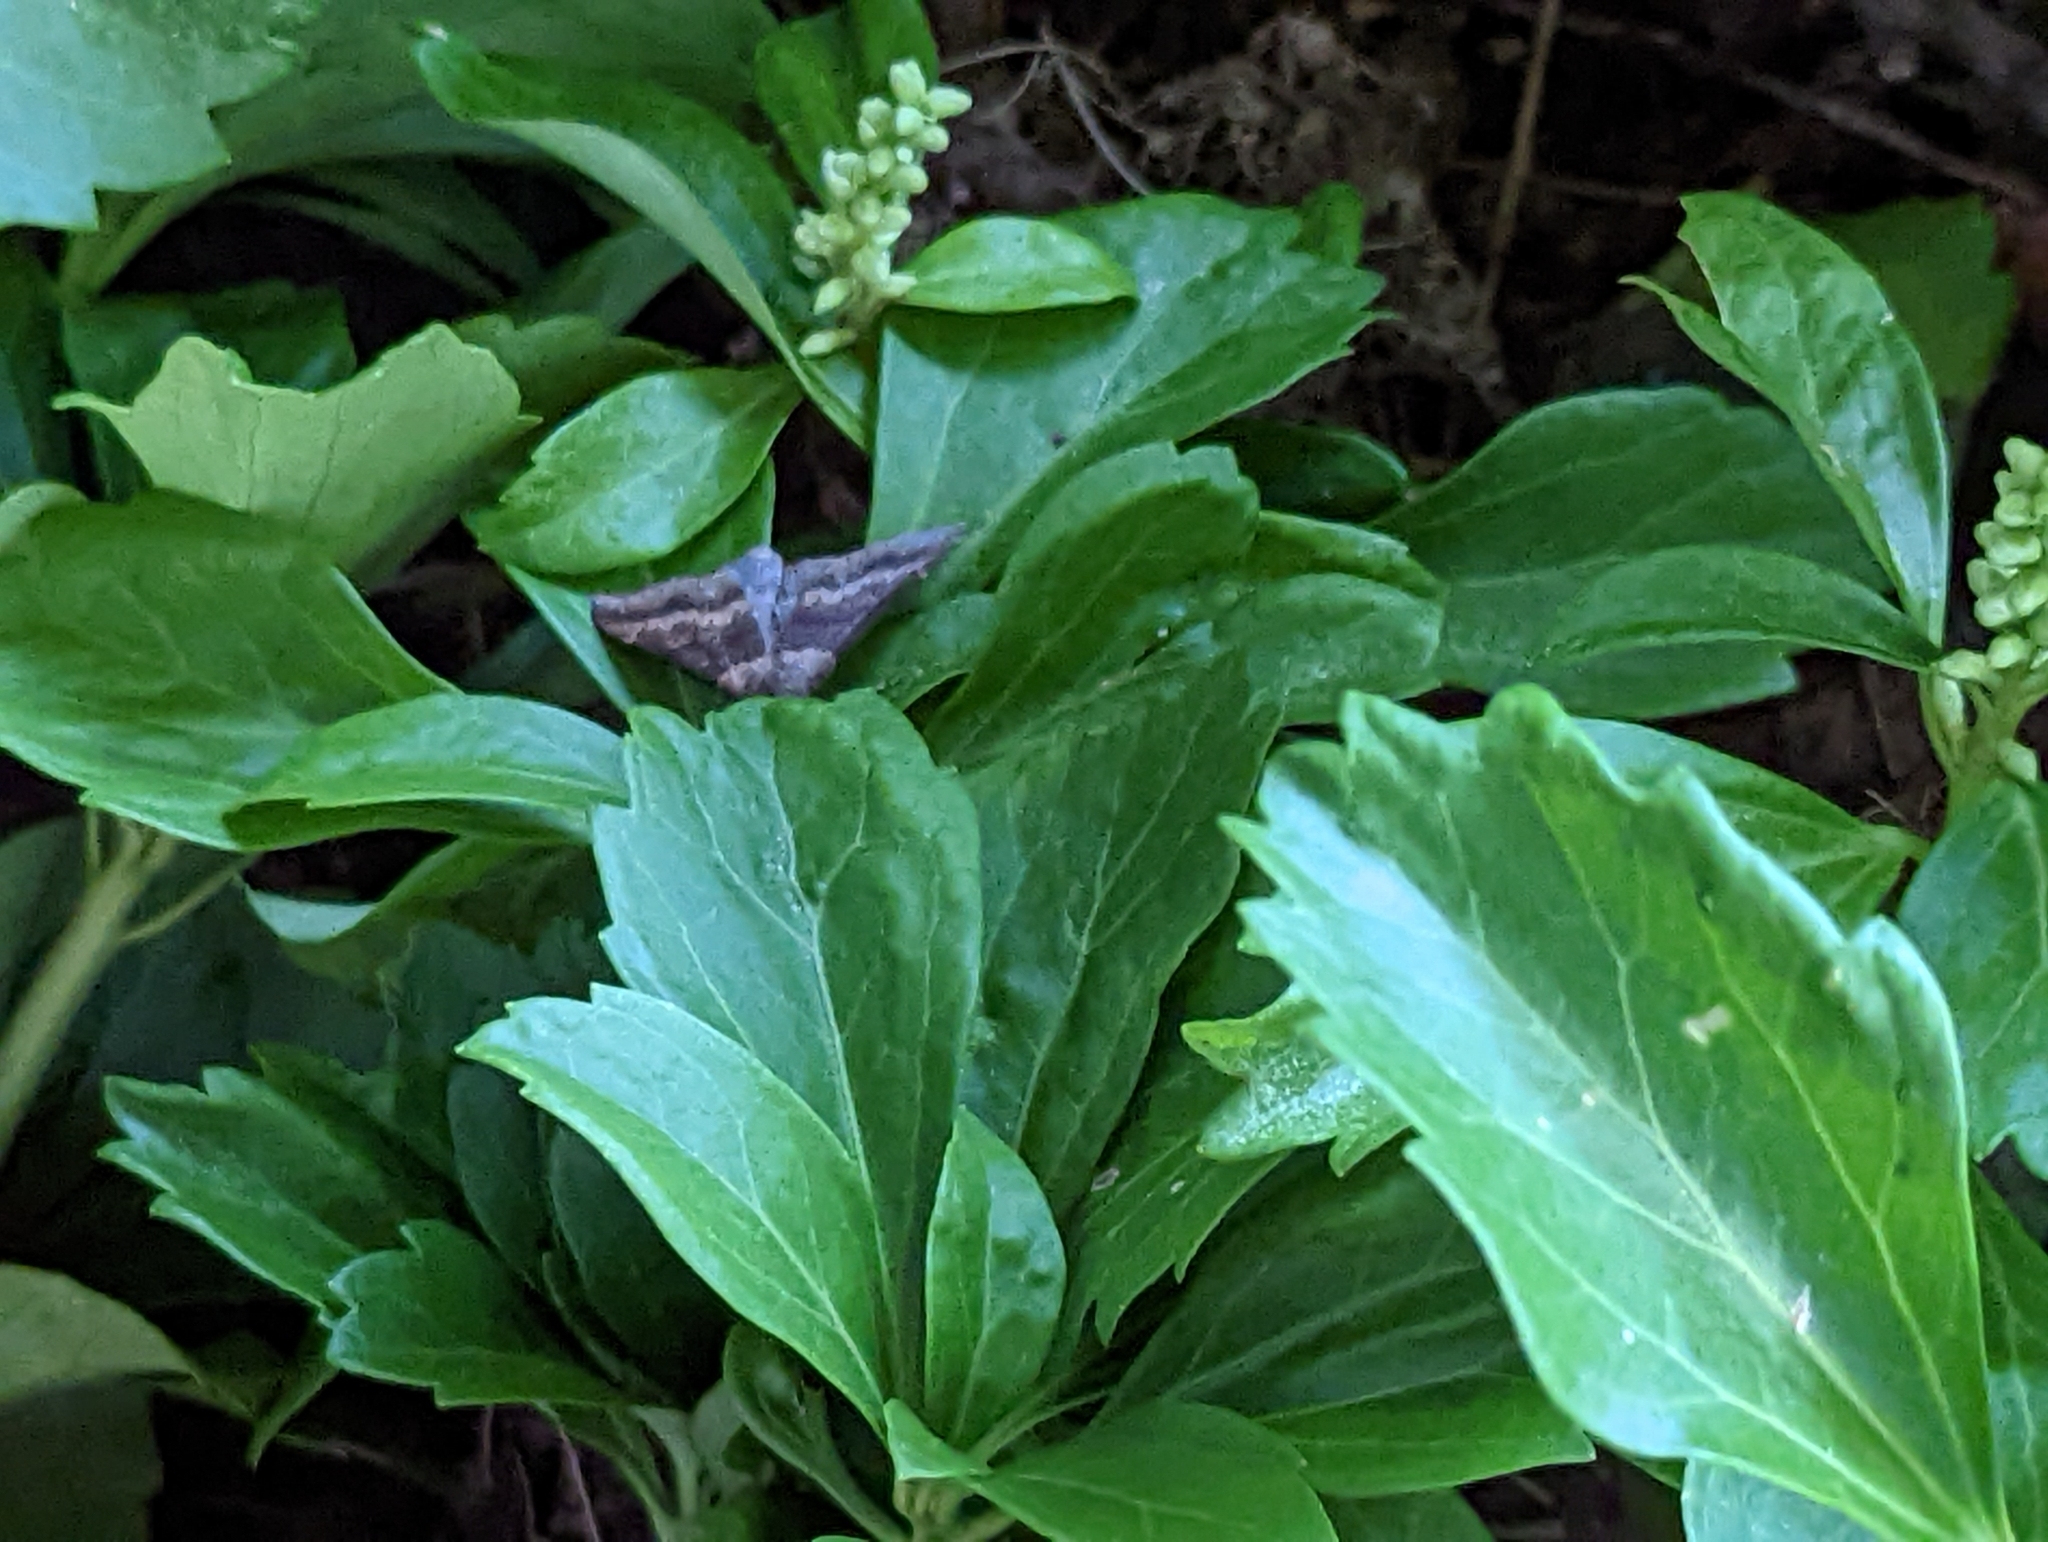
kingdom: Plantae
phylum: Tracheophyta
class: Magnoliopsida
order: Buxales
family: Buxaceae
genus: Pachysandra
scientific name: Pachysandra terminalis
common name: Japanese pachysandra
